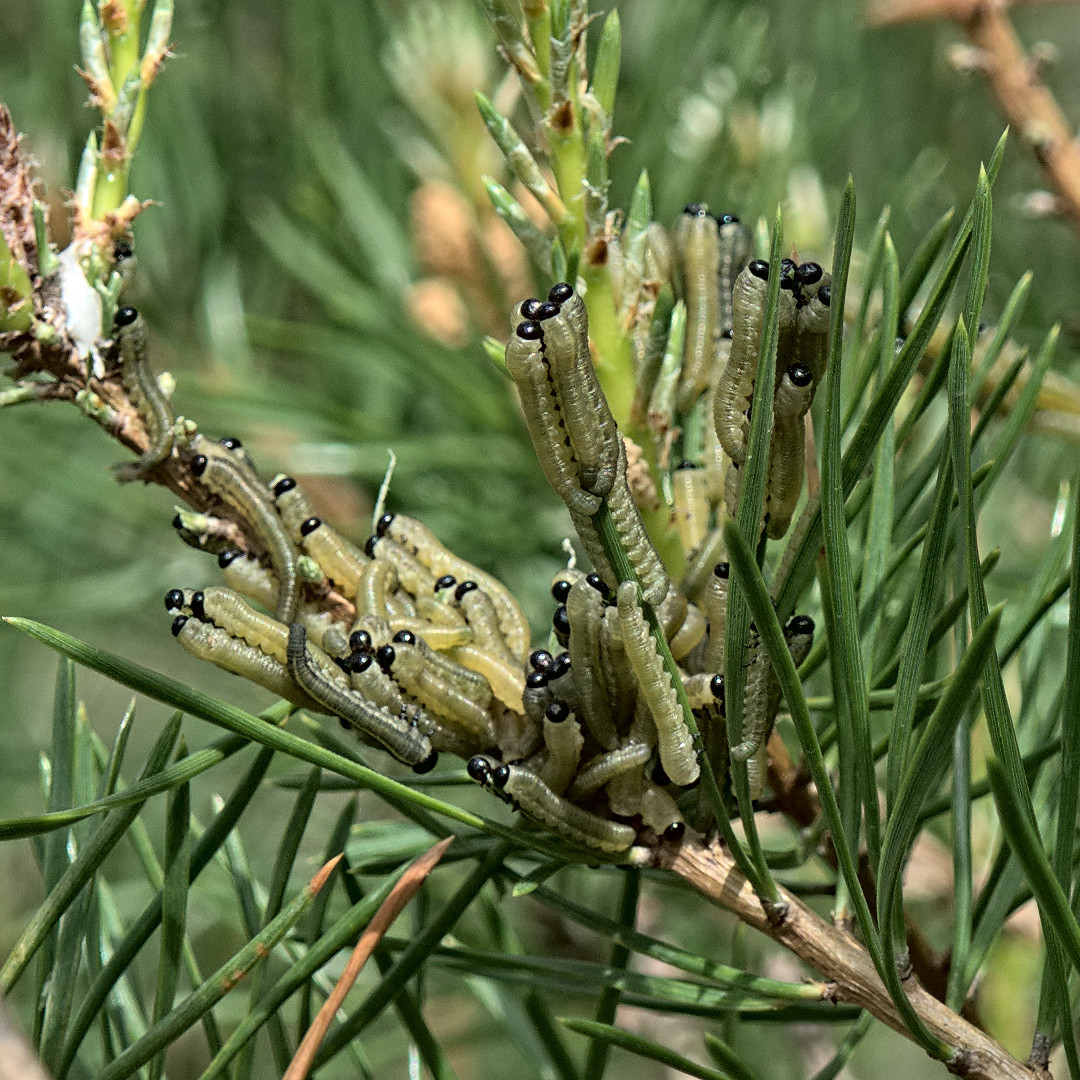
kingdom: Animalia
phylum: Arthropoda
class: Insecta
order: Hymenoptera
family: Diprionidae
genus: Neodiprion
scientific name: Neodiprion sertifer
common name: European pine sawfly
